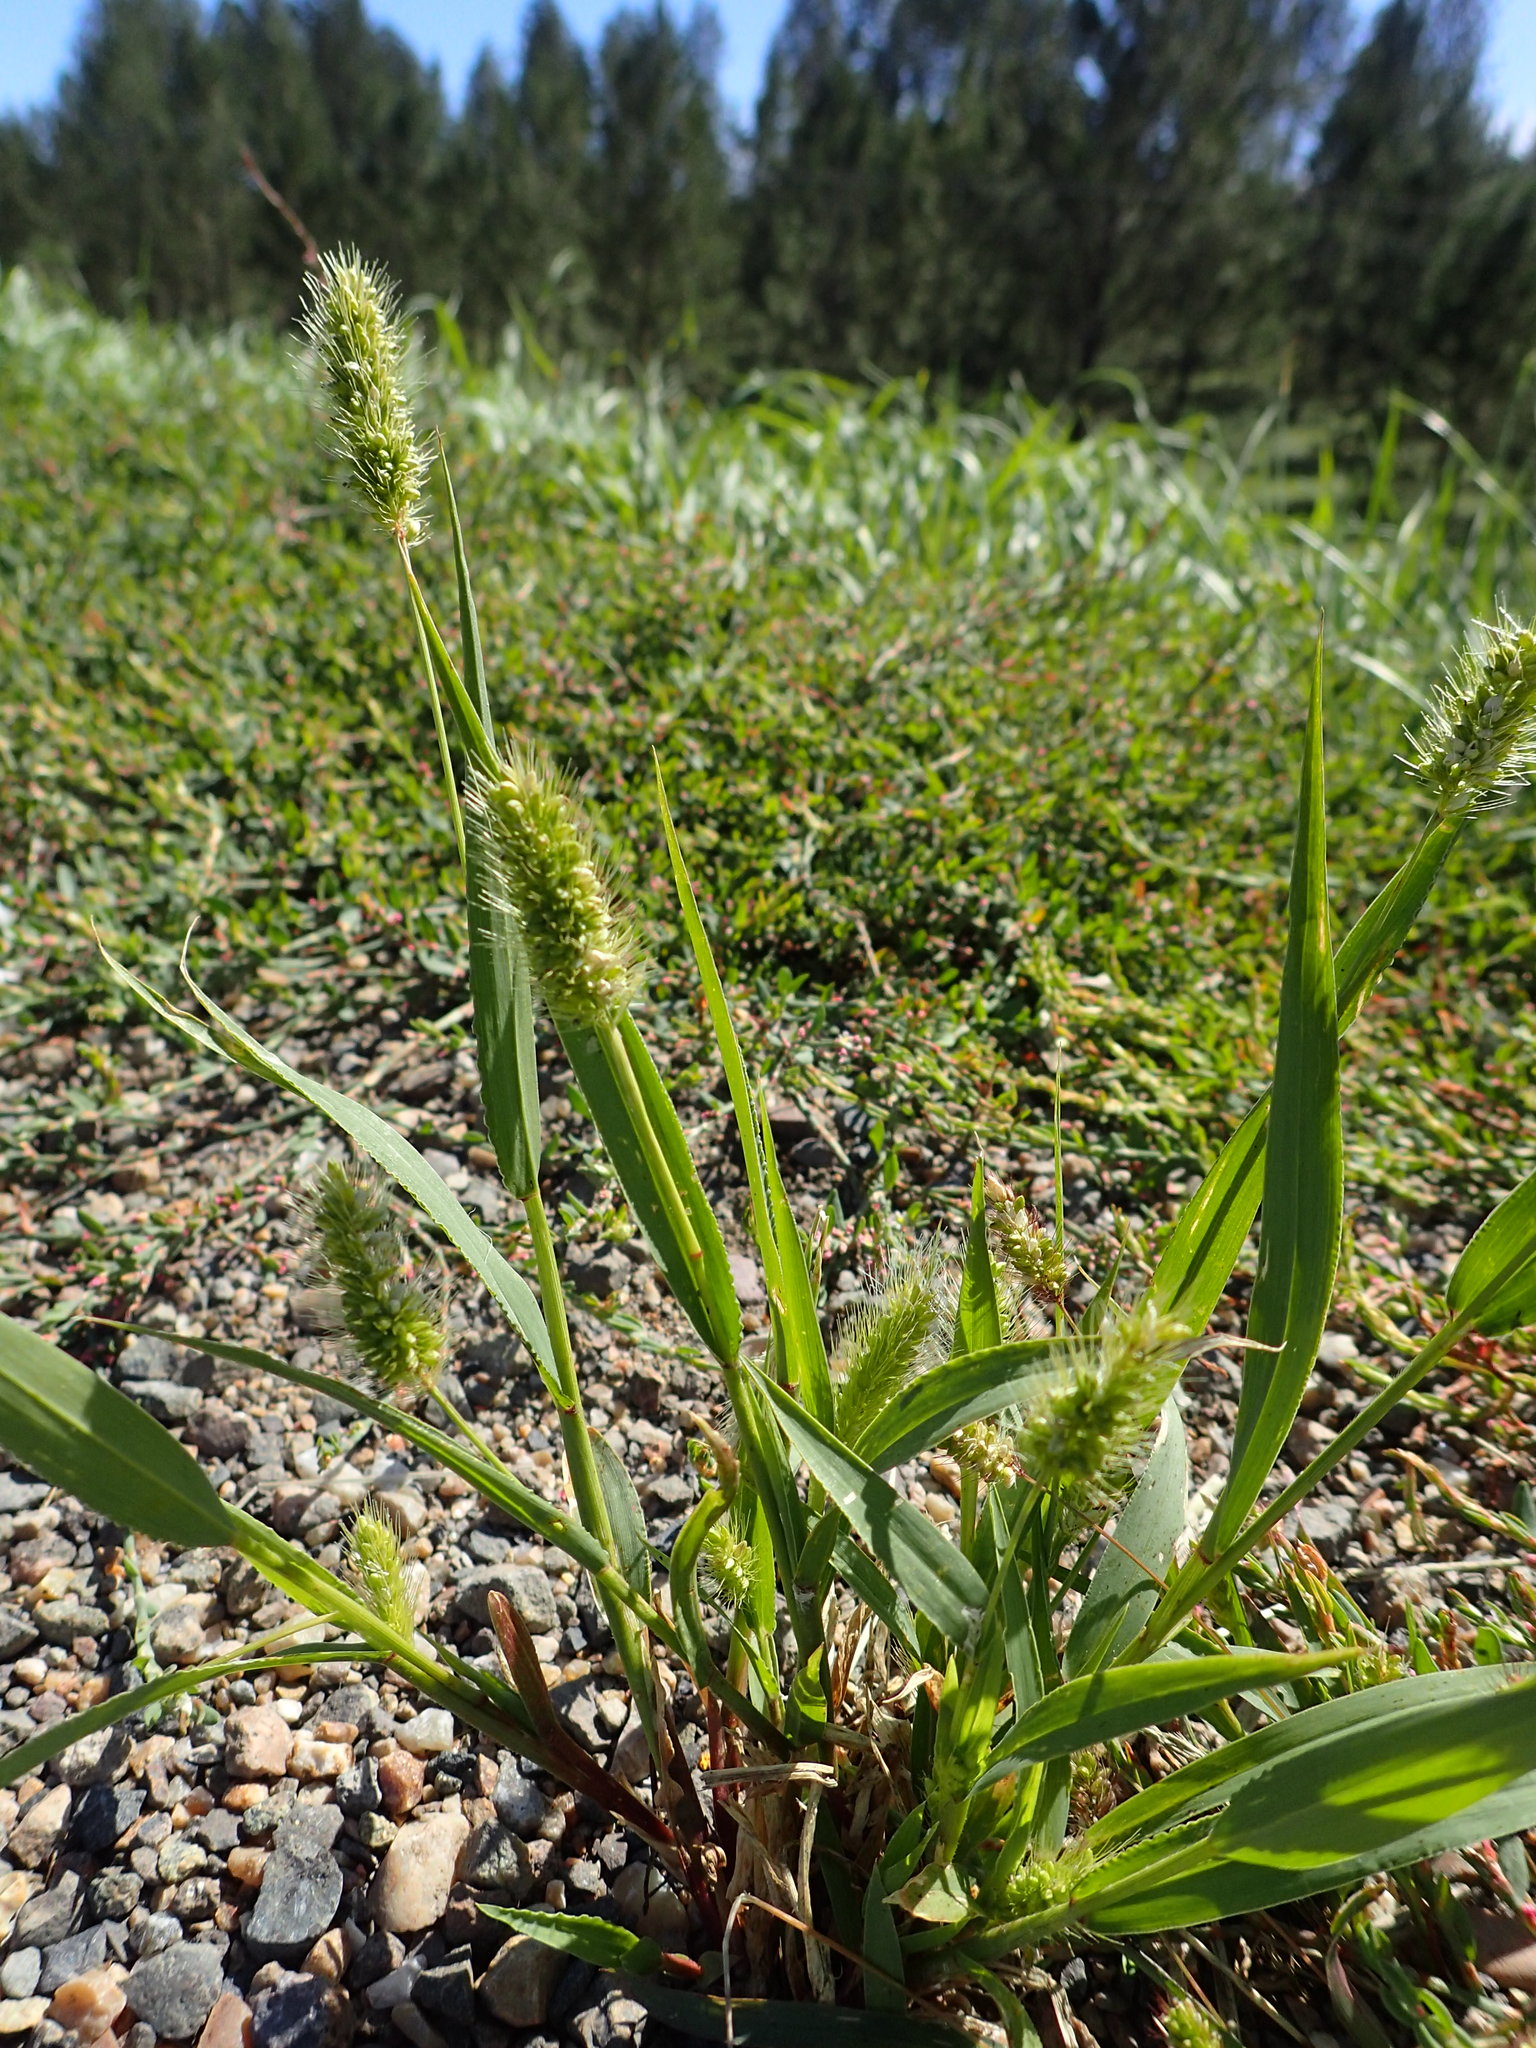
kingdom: Plantae
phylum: Tracheophyta
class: Liliopsida
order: Poales
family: Poaceae
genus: Setaria
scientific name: Setaria viridis
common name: Green bristlegrass
